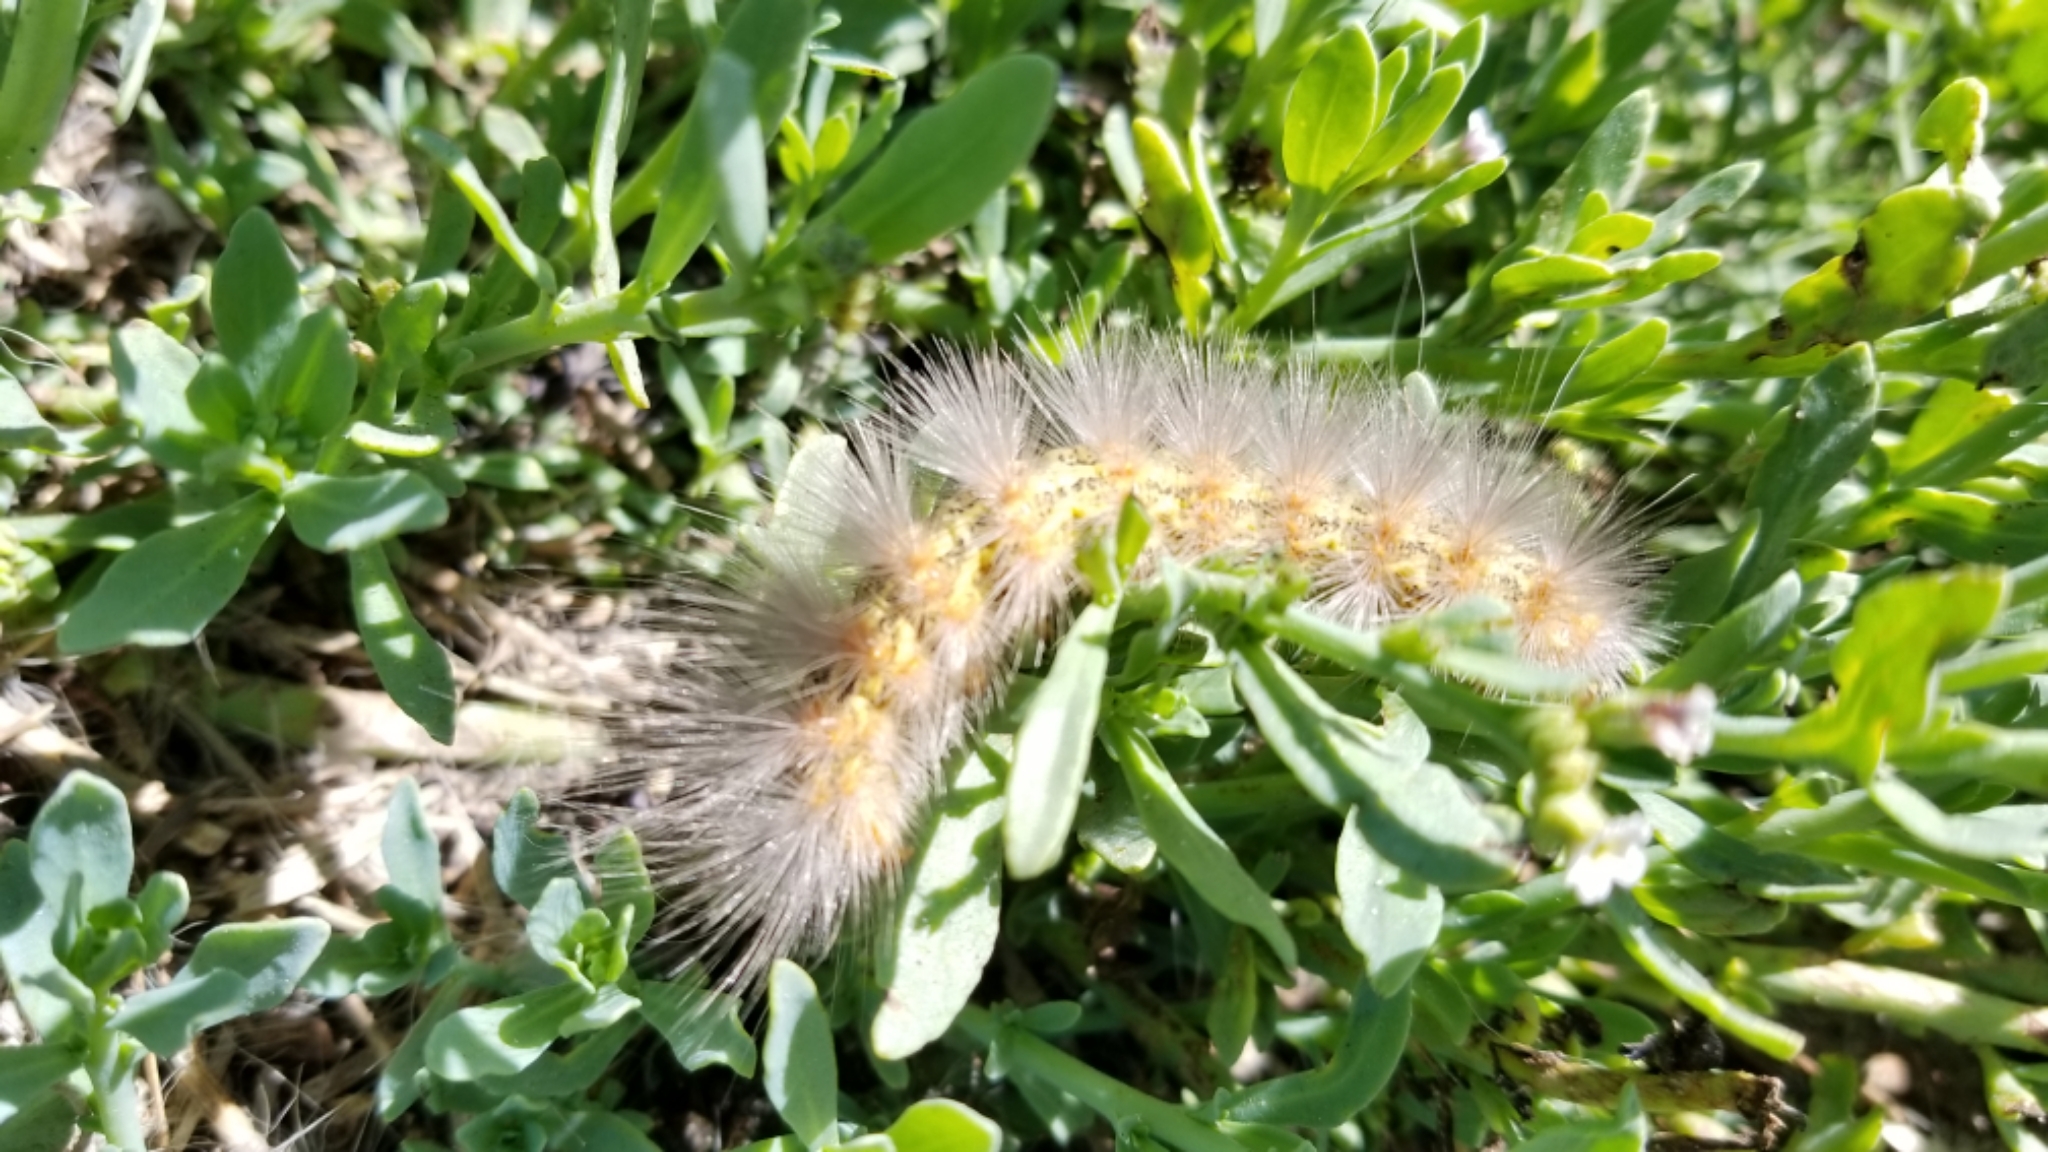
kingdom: Animalia
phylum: Arthropoda
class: Insecta
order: Lepidoptera
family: Erebidae
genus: Estigmene
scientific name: Estigmene acrea
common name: Salt marsh moth
